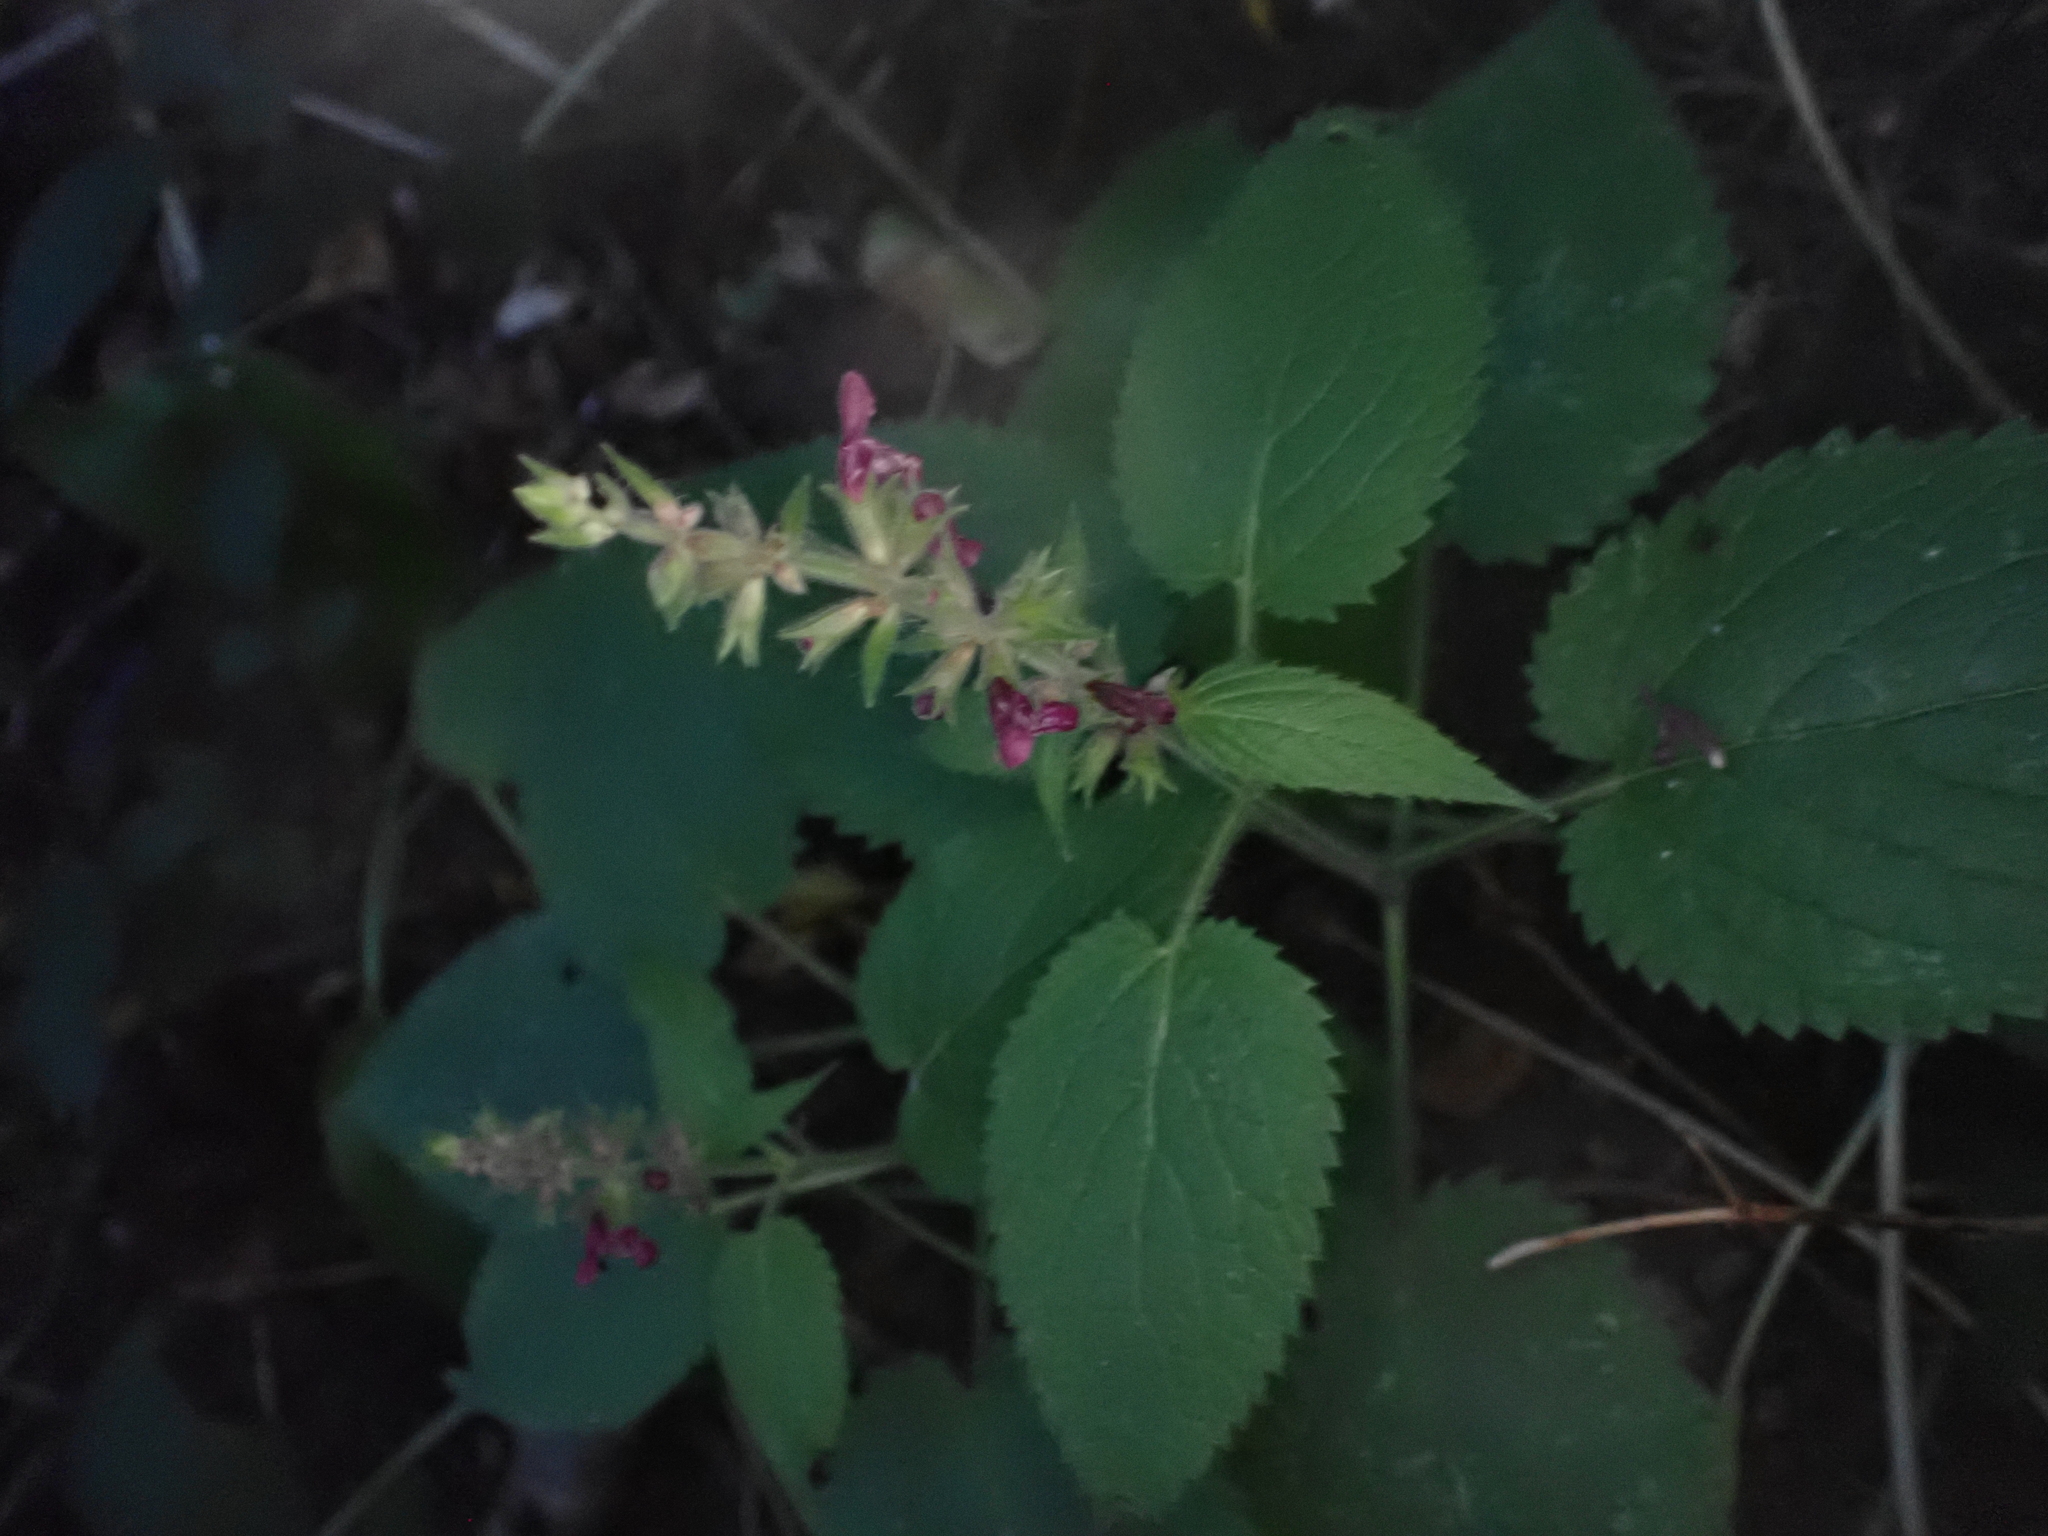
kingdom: Plantae
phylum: Tracheophyta
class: Magnoliopsida
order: Lamiales
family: Lamiaceae
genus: Stachys
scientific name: Stachys sylvatica
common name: Hedge woundwort
